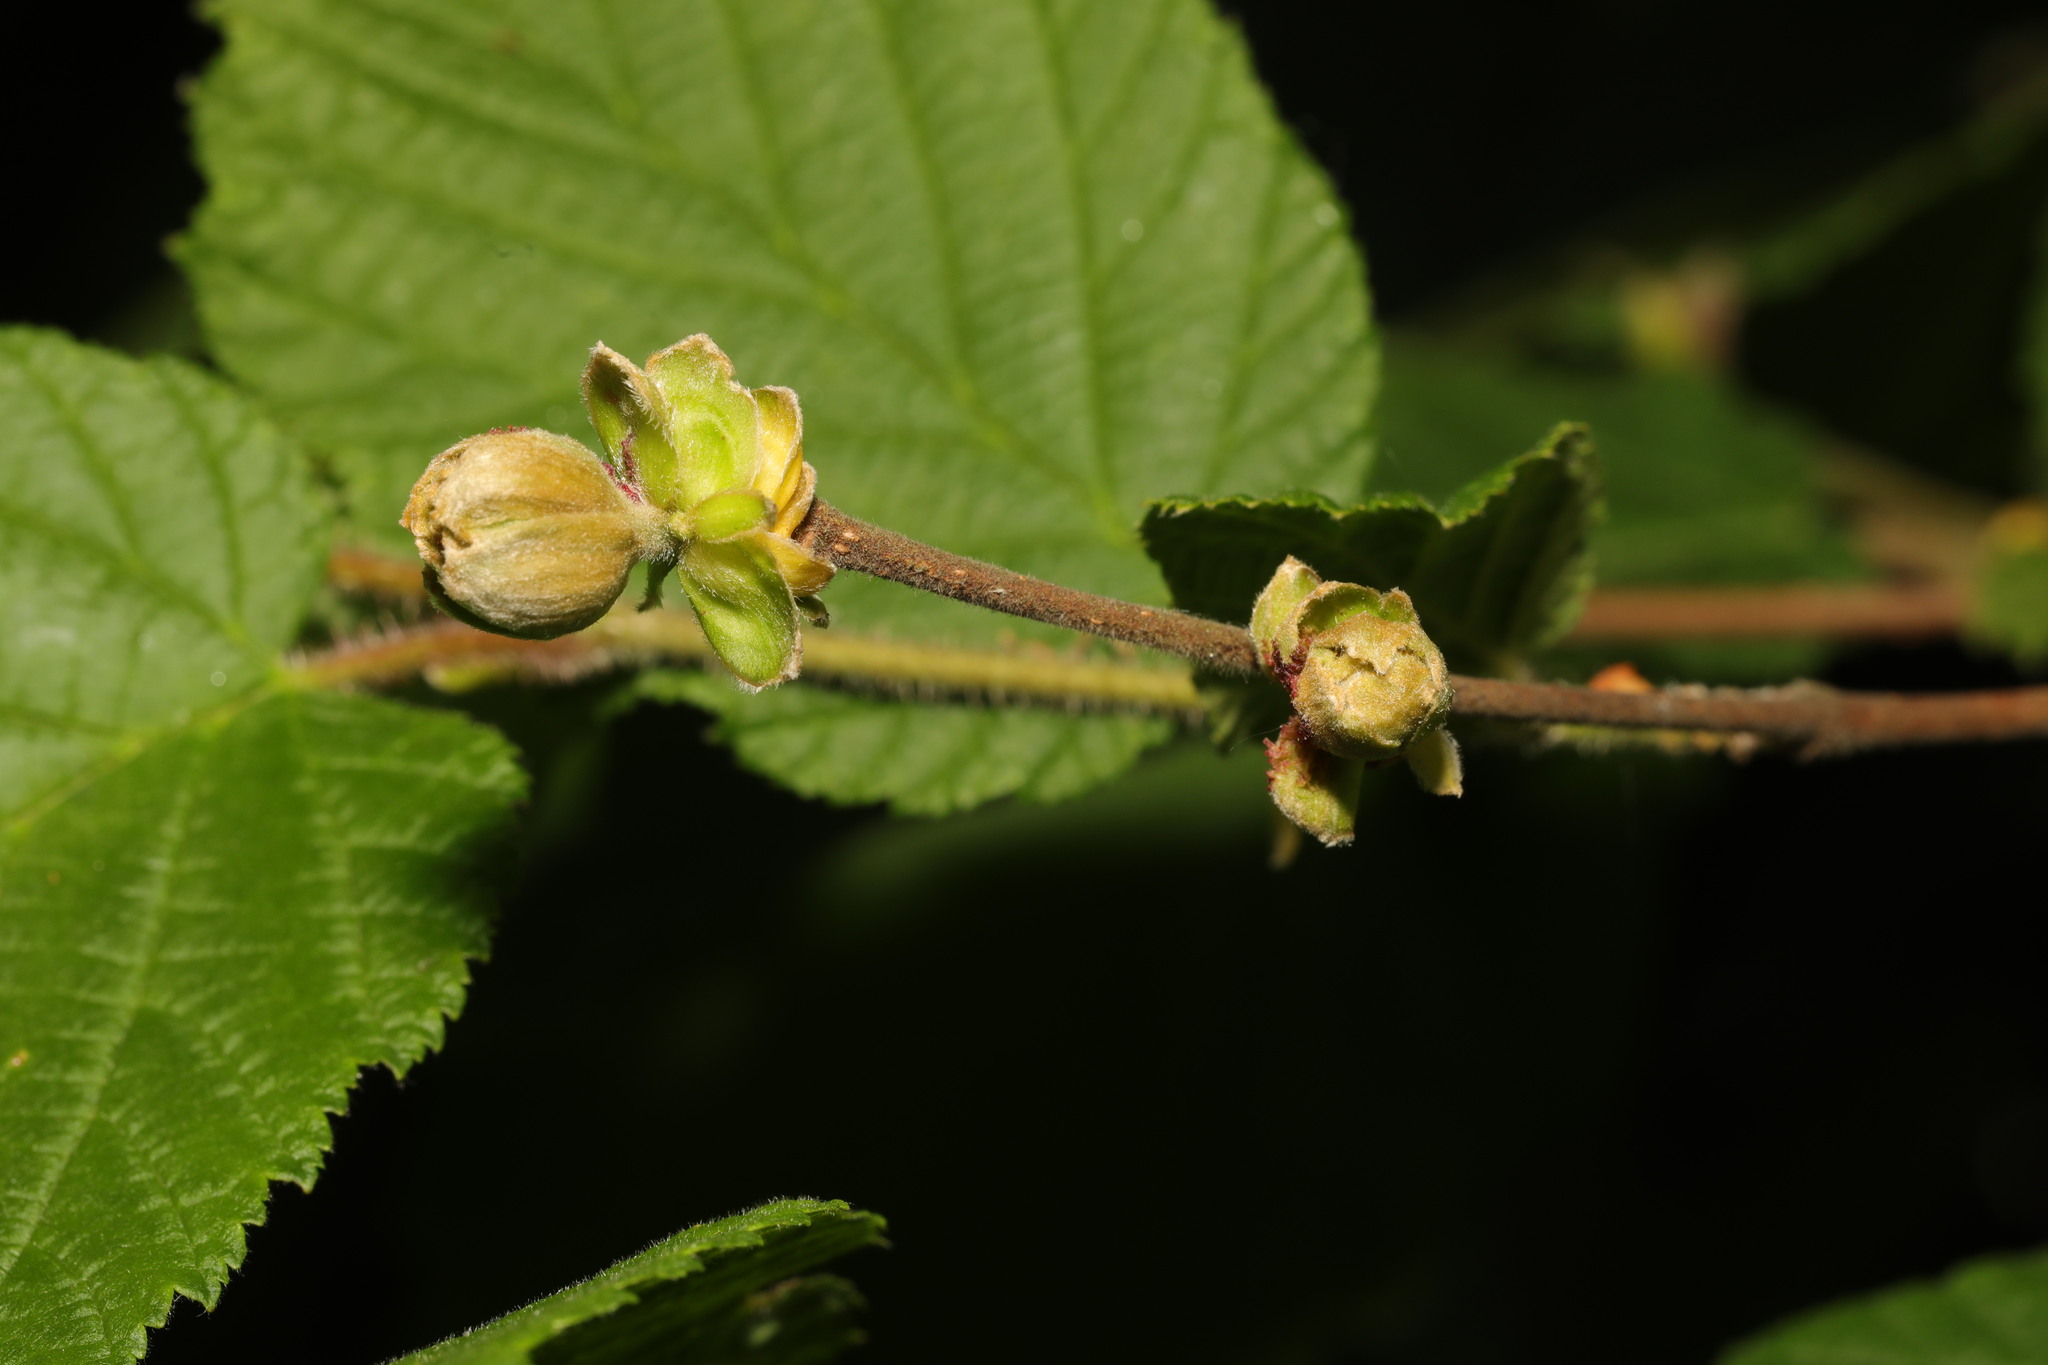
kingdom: Animalia
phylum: Arthropoda
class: Arachnida
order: Trombidiformes
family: Phytoptidae
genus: Phytoptus
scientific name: Phytoptus avellanae
